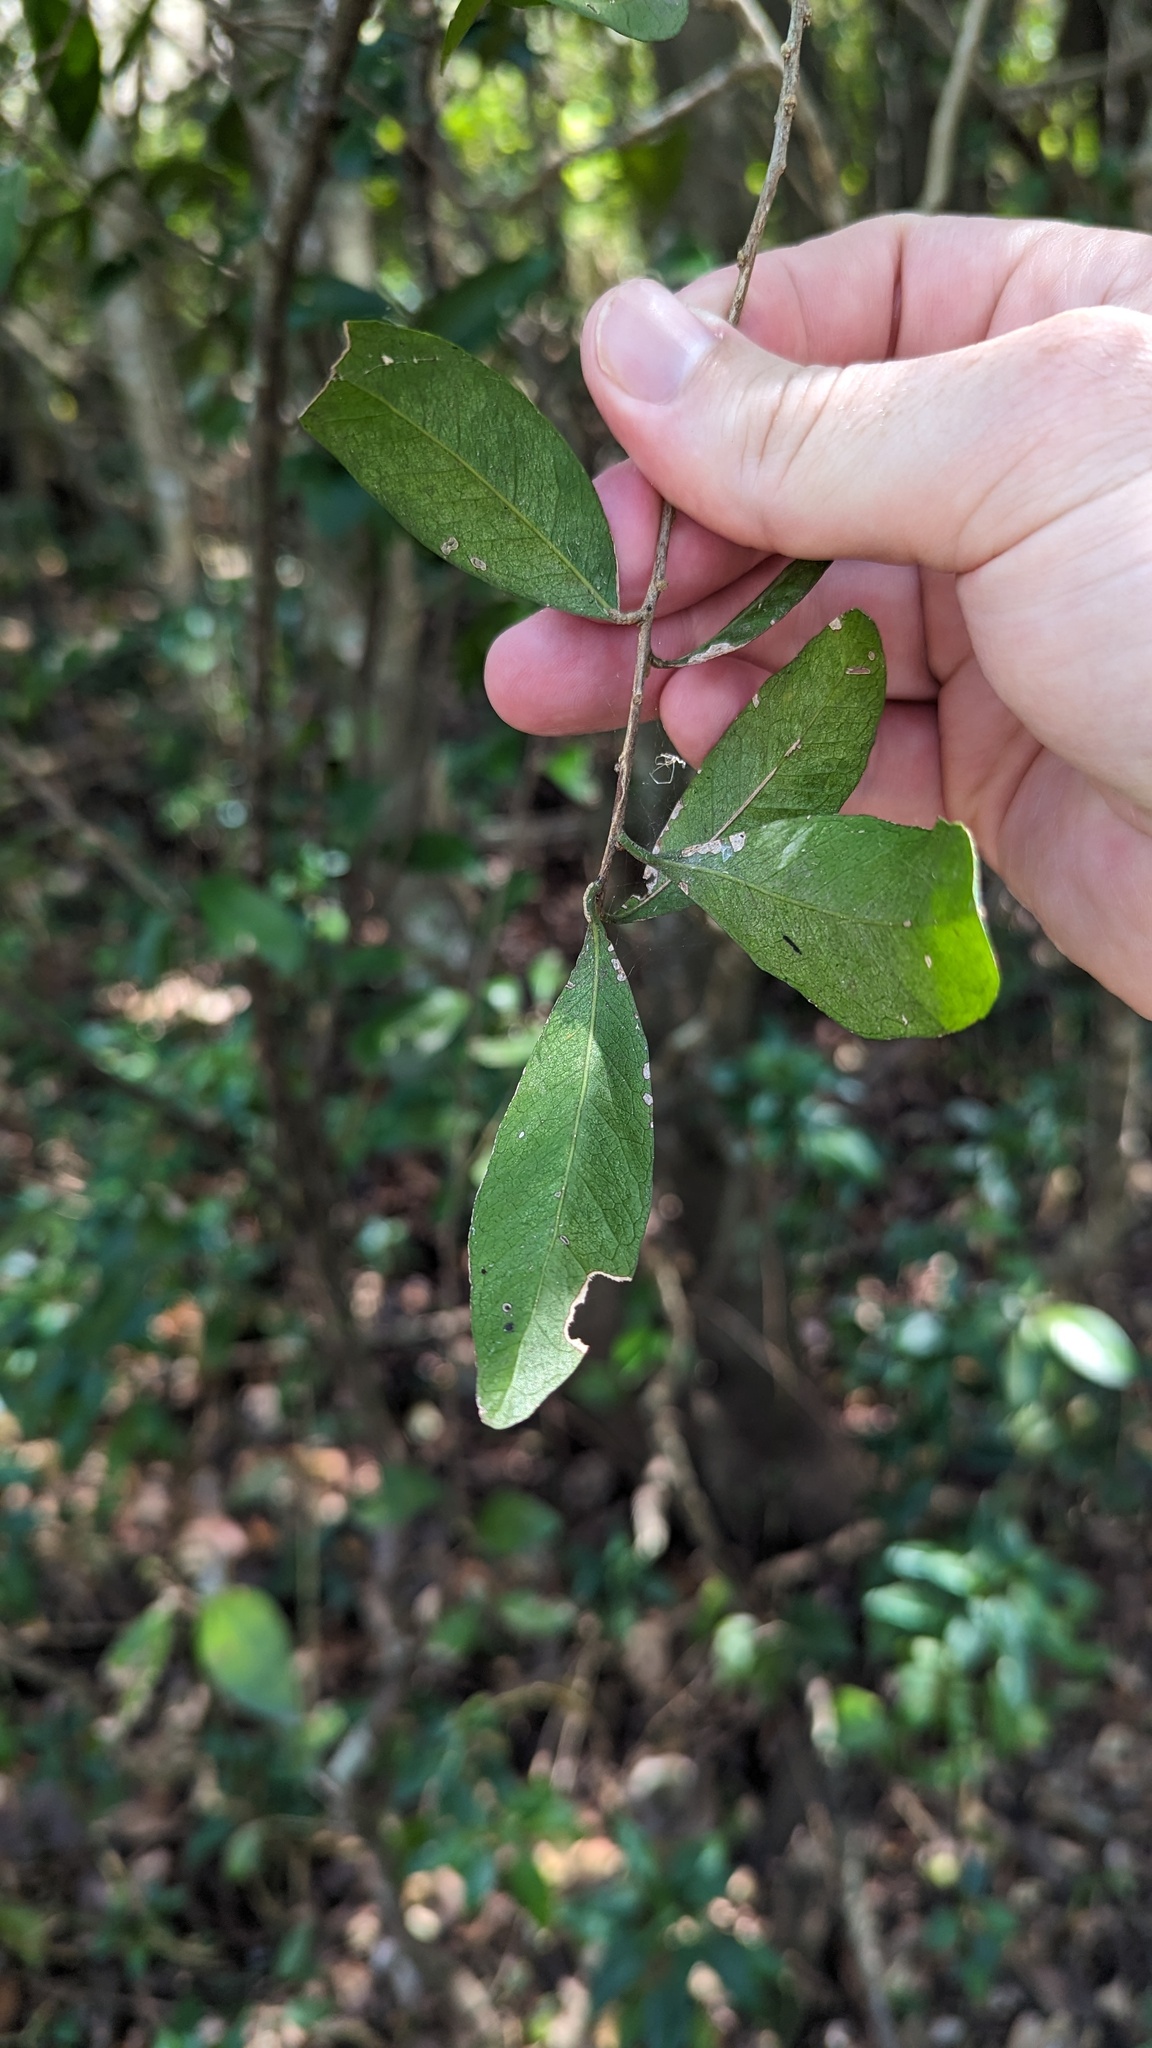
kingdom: Plantae
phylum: Tracheophyta
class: Magnoliopsida
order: Ericales
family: Sapotaceae
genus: Planchonella
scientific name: Planchonella myrsinifolia
